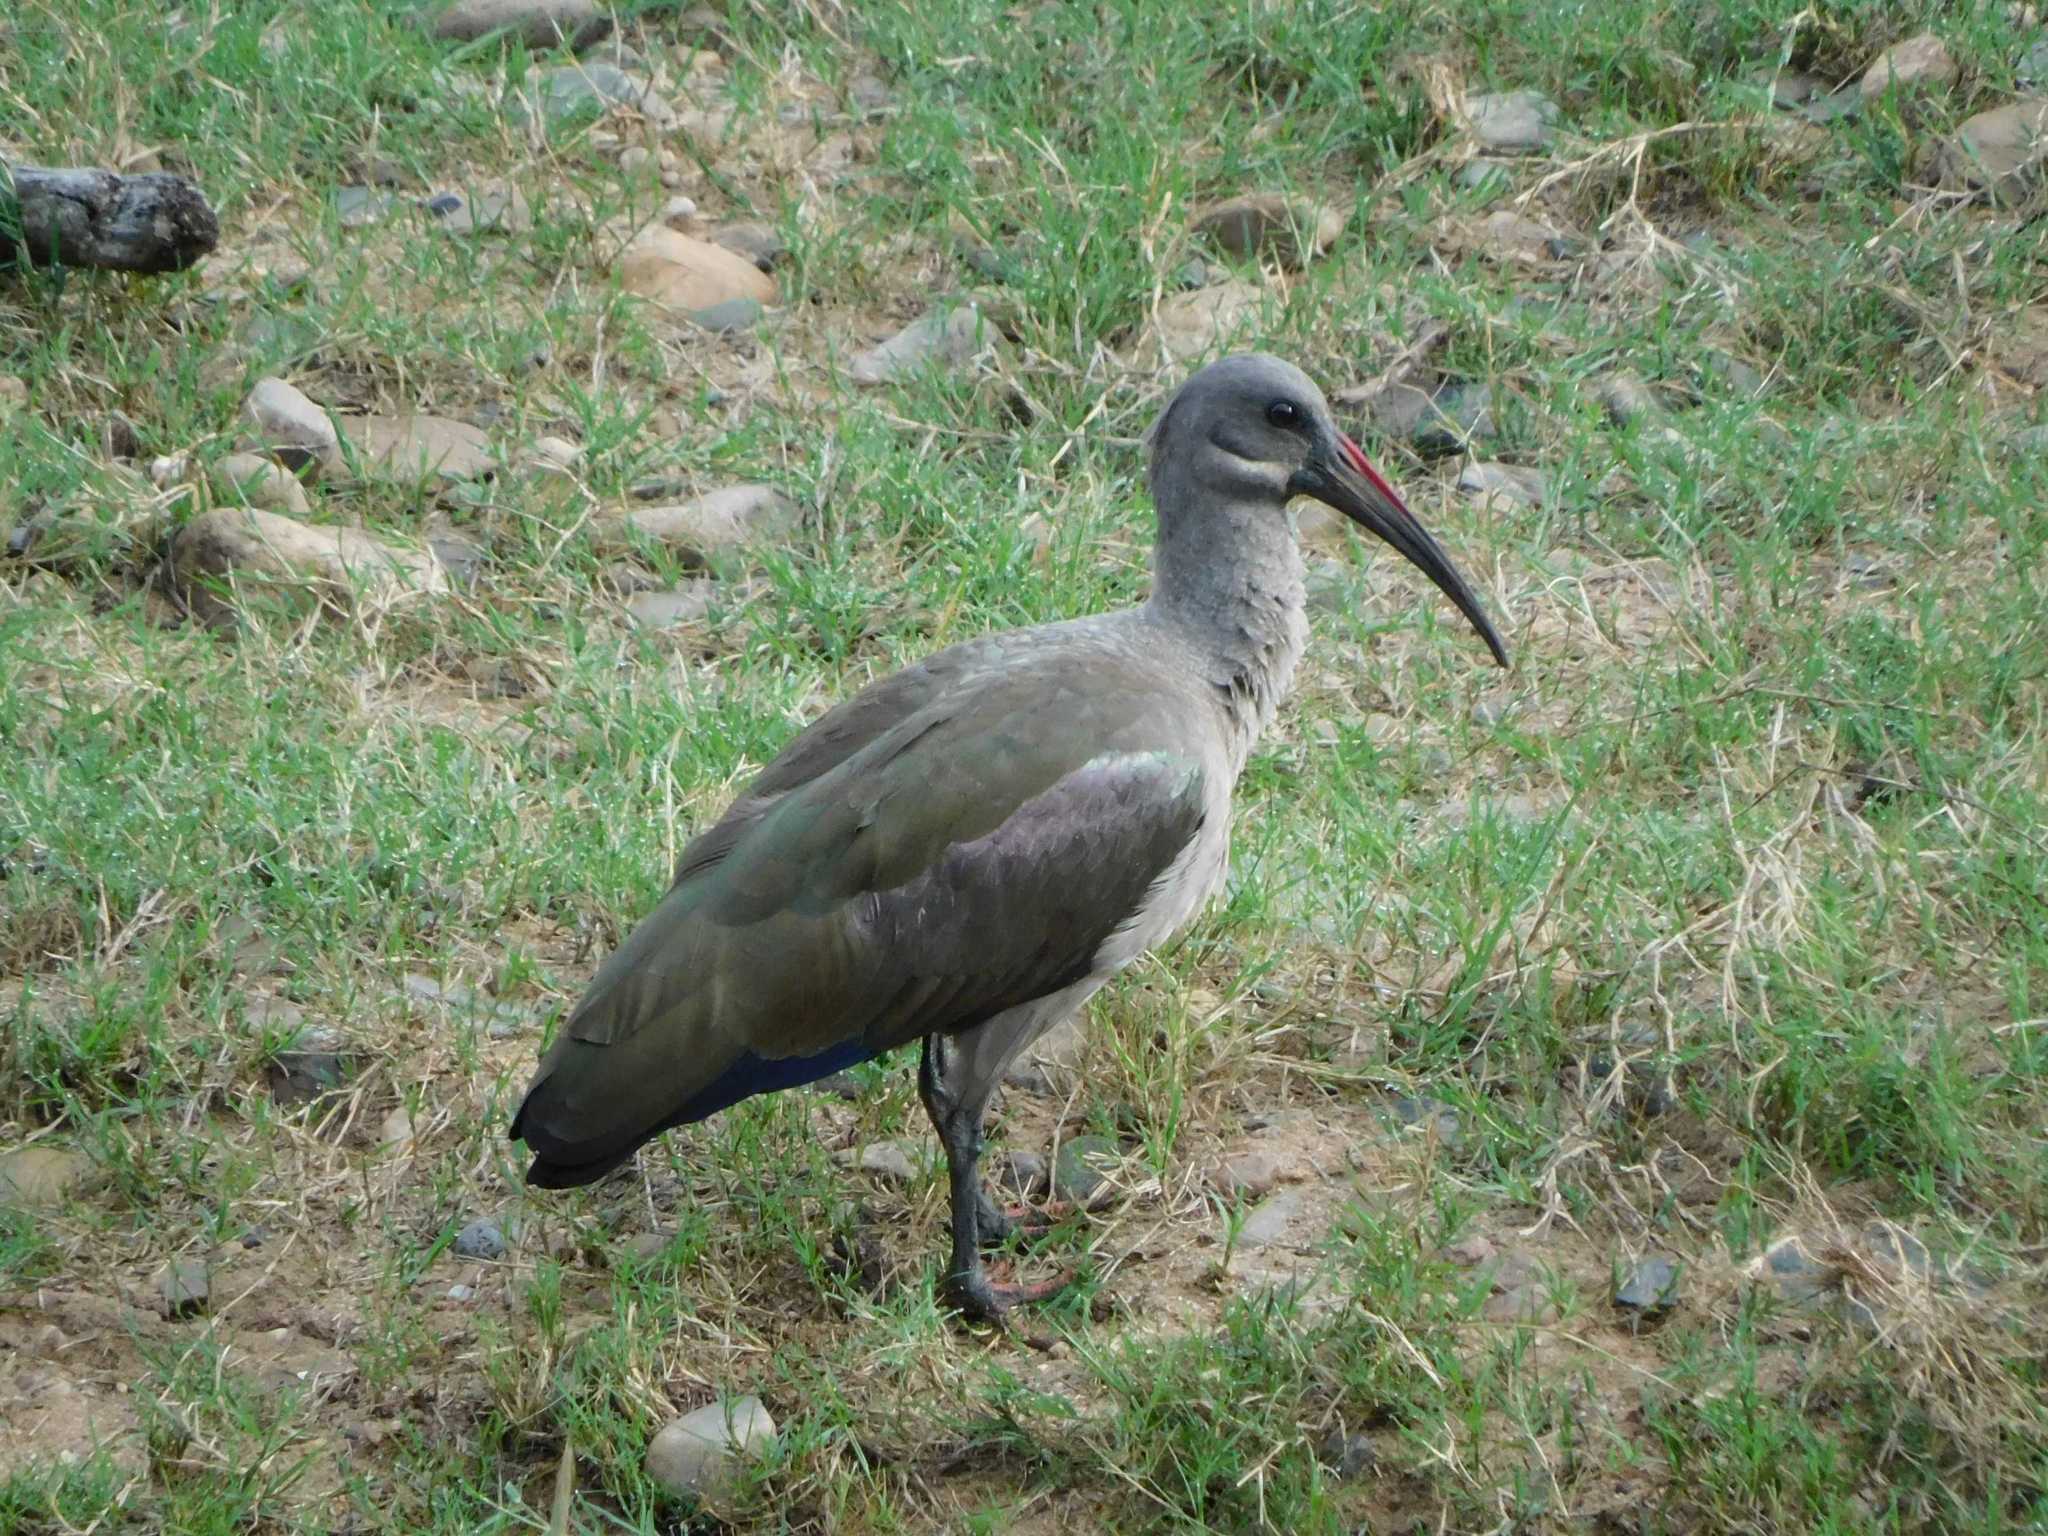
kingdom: Animalia
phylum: Chordata
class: Aves
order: Pelecaniformes
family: Threskiornithidae
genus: Bostrychia
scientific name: Bostrychia hagedash
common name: Hadada ibis
